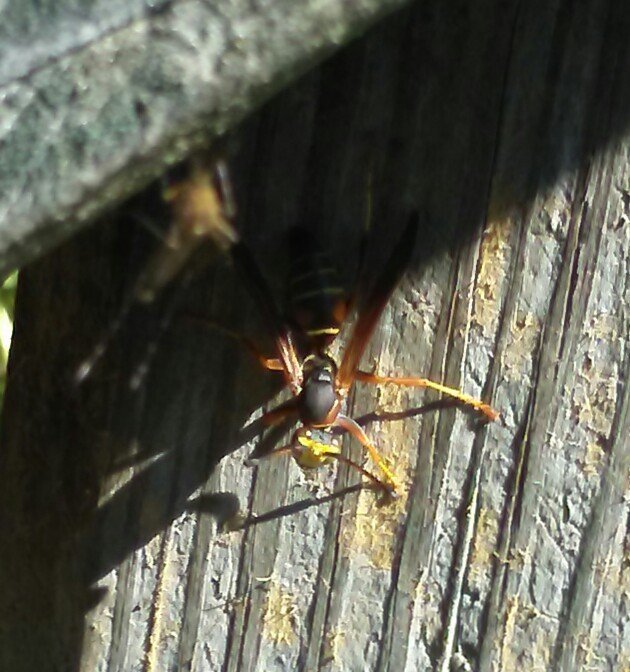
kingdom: Animalia
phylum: Arthropoda
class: Insecta
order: Hymenoptera
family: Eumenidae
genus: Polistes
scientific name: Polistes fuscatus
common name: Dark paper wasp
